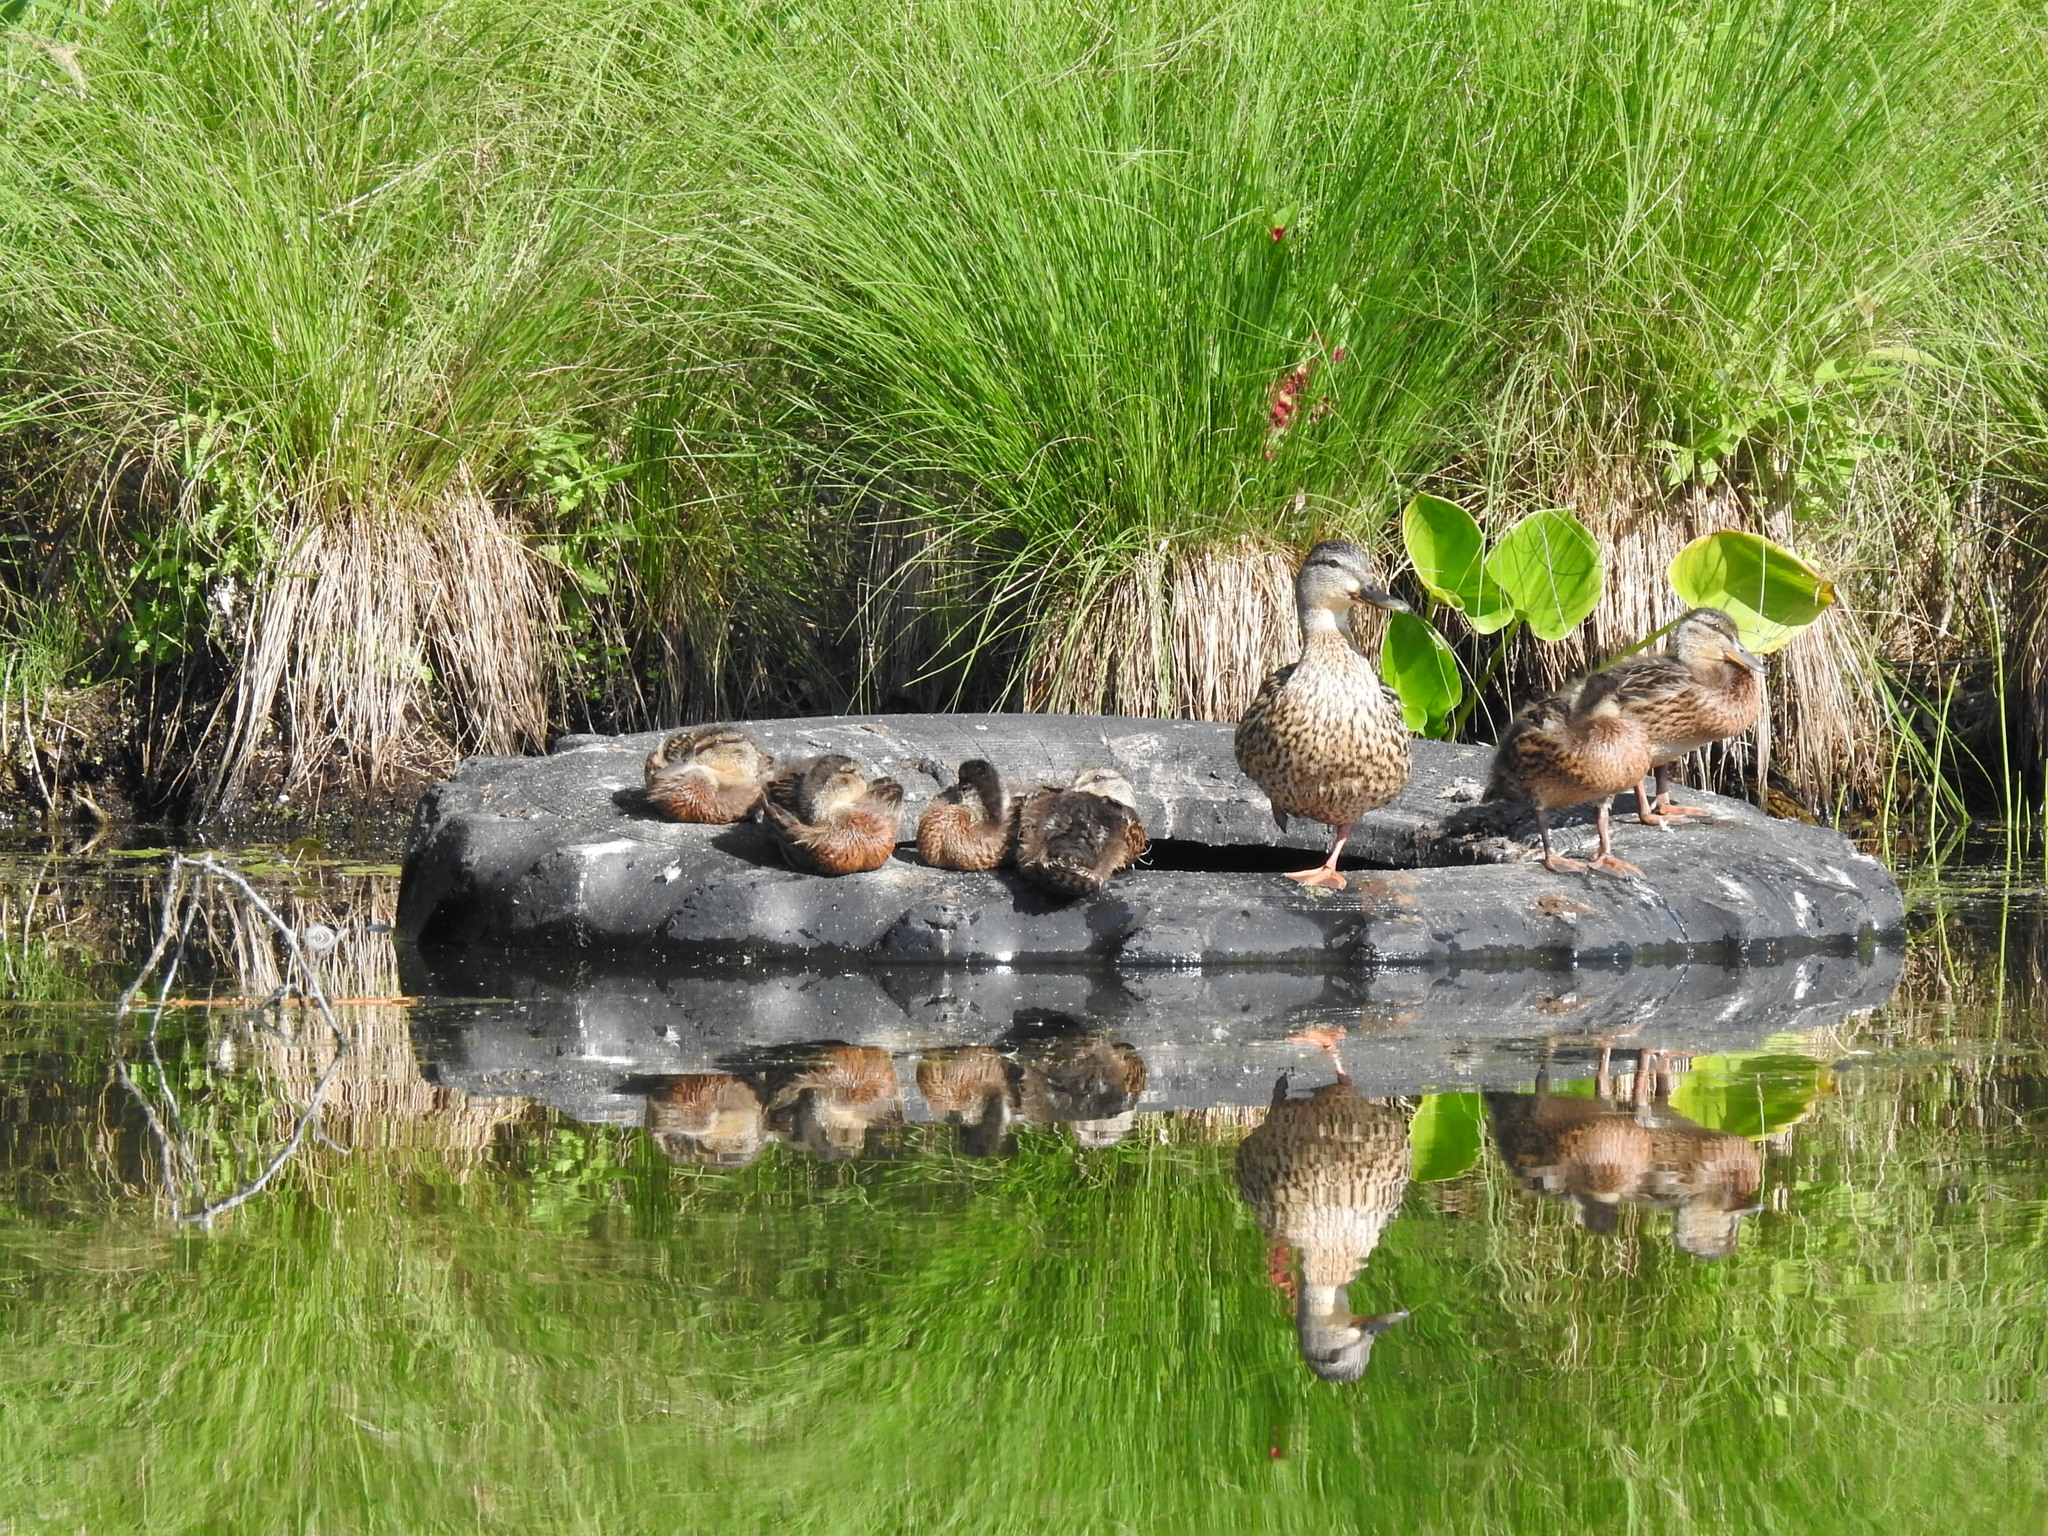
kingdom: Animalia
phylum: Chordata
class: Aves
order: Anseriformes
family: Anatidae
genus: Anas
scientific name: Anas platyrhynchos
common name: Mallard
